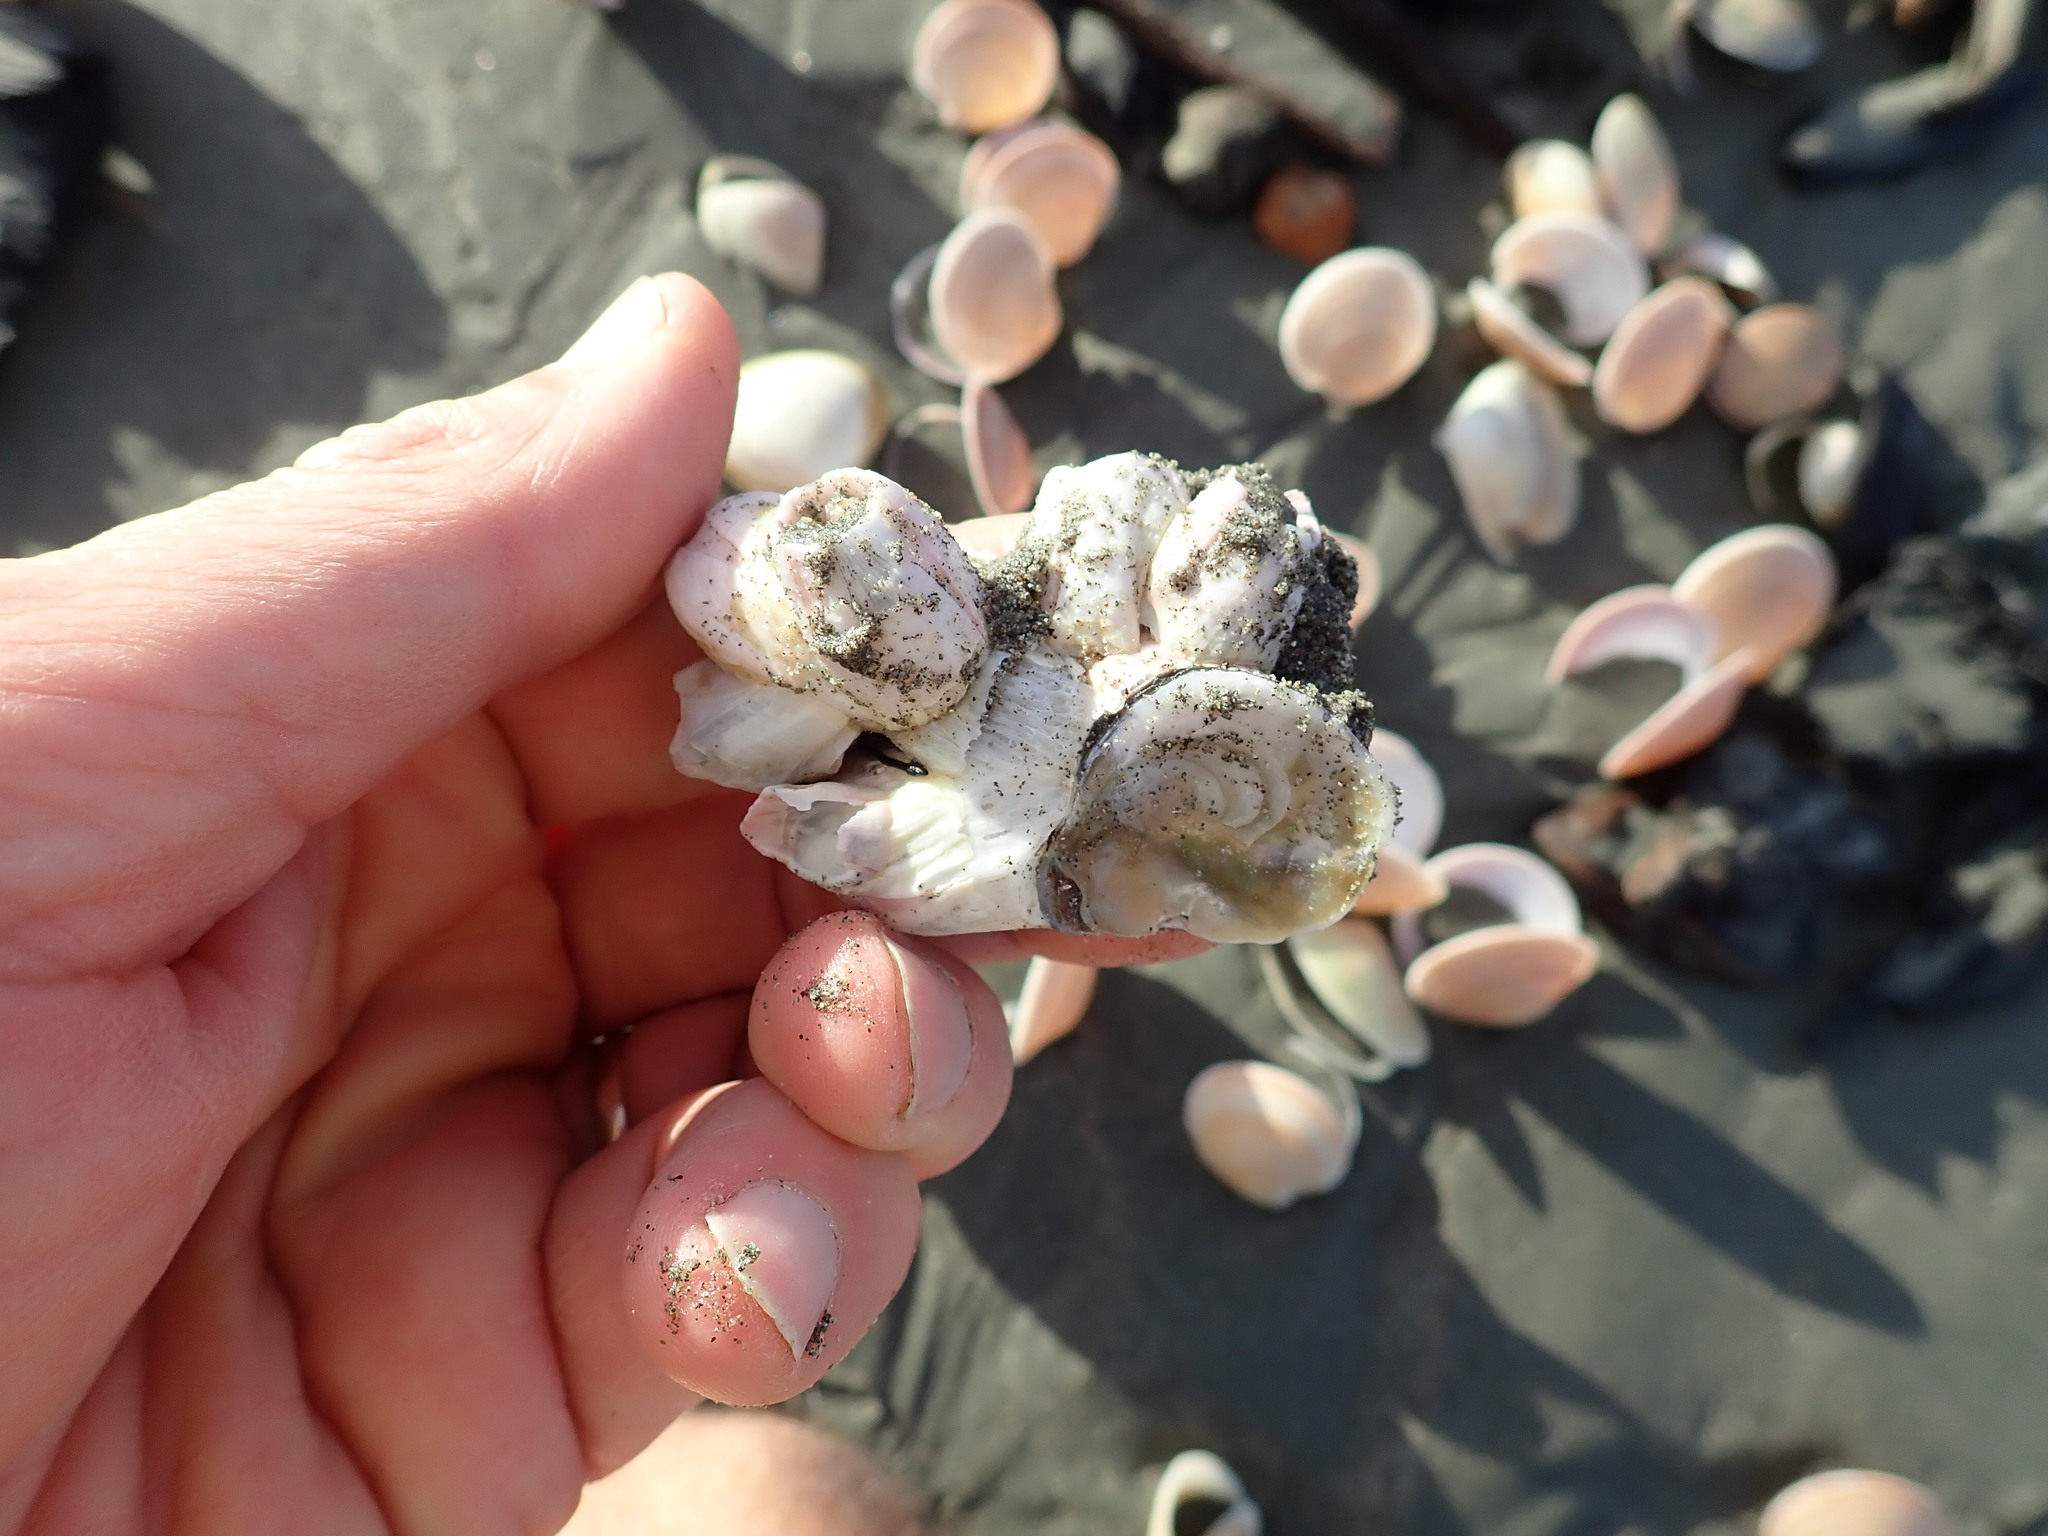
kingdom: Animalia
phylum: Arthropoda
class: Maxillopoda
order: Sessilia
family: Balanidae
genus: Notomegabalanus
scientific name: Notomegabalanus decorus
